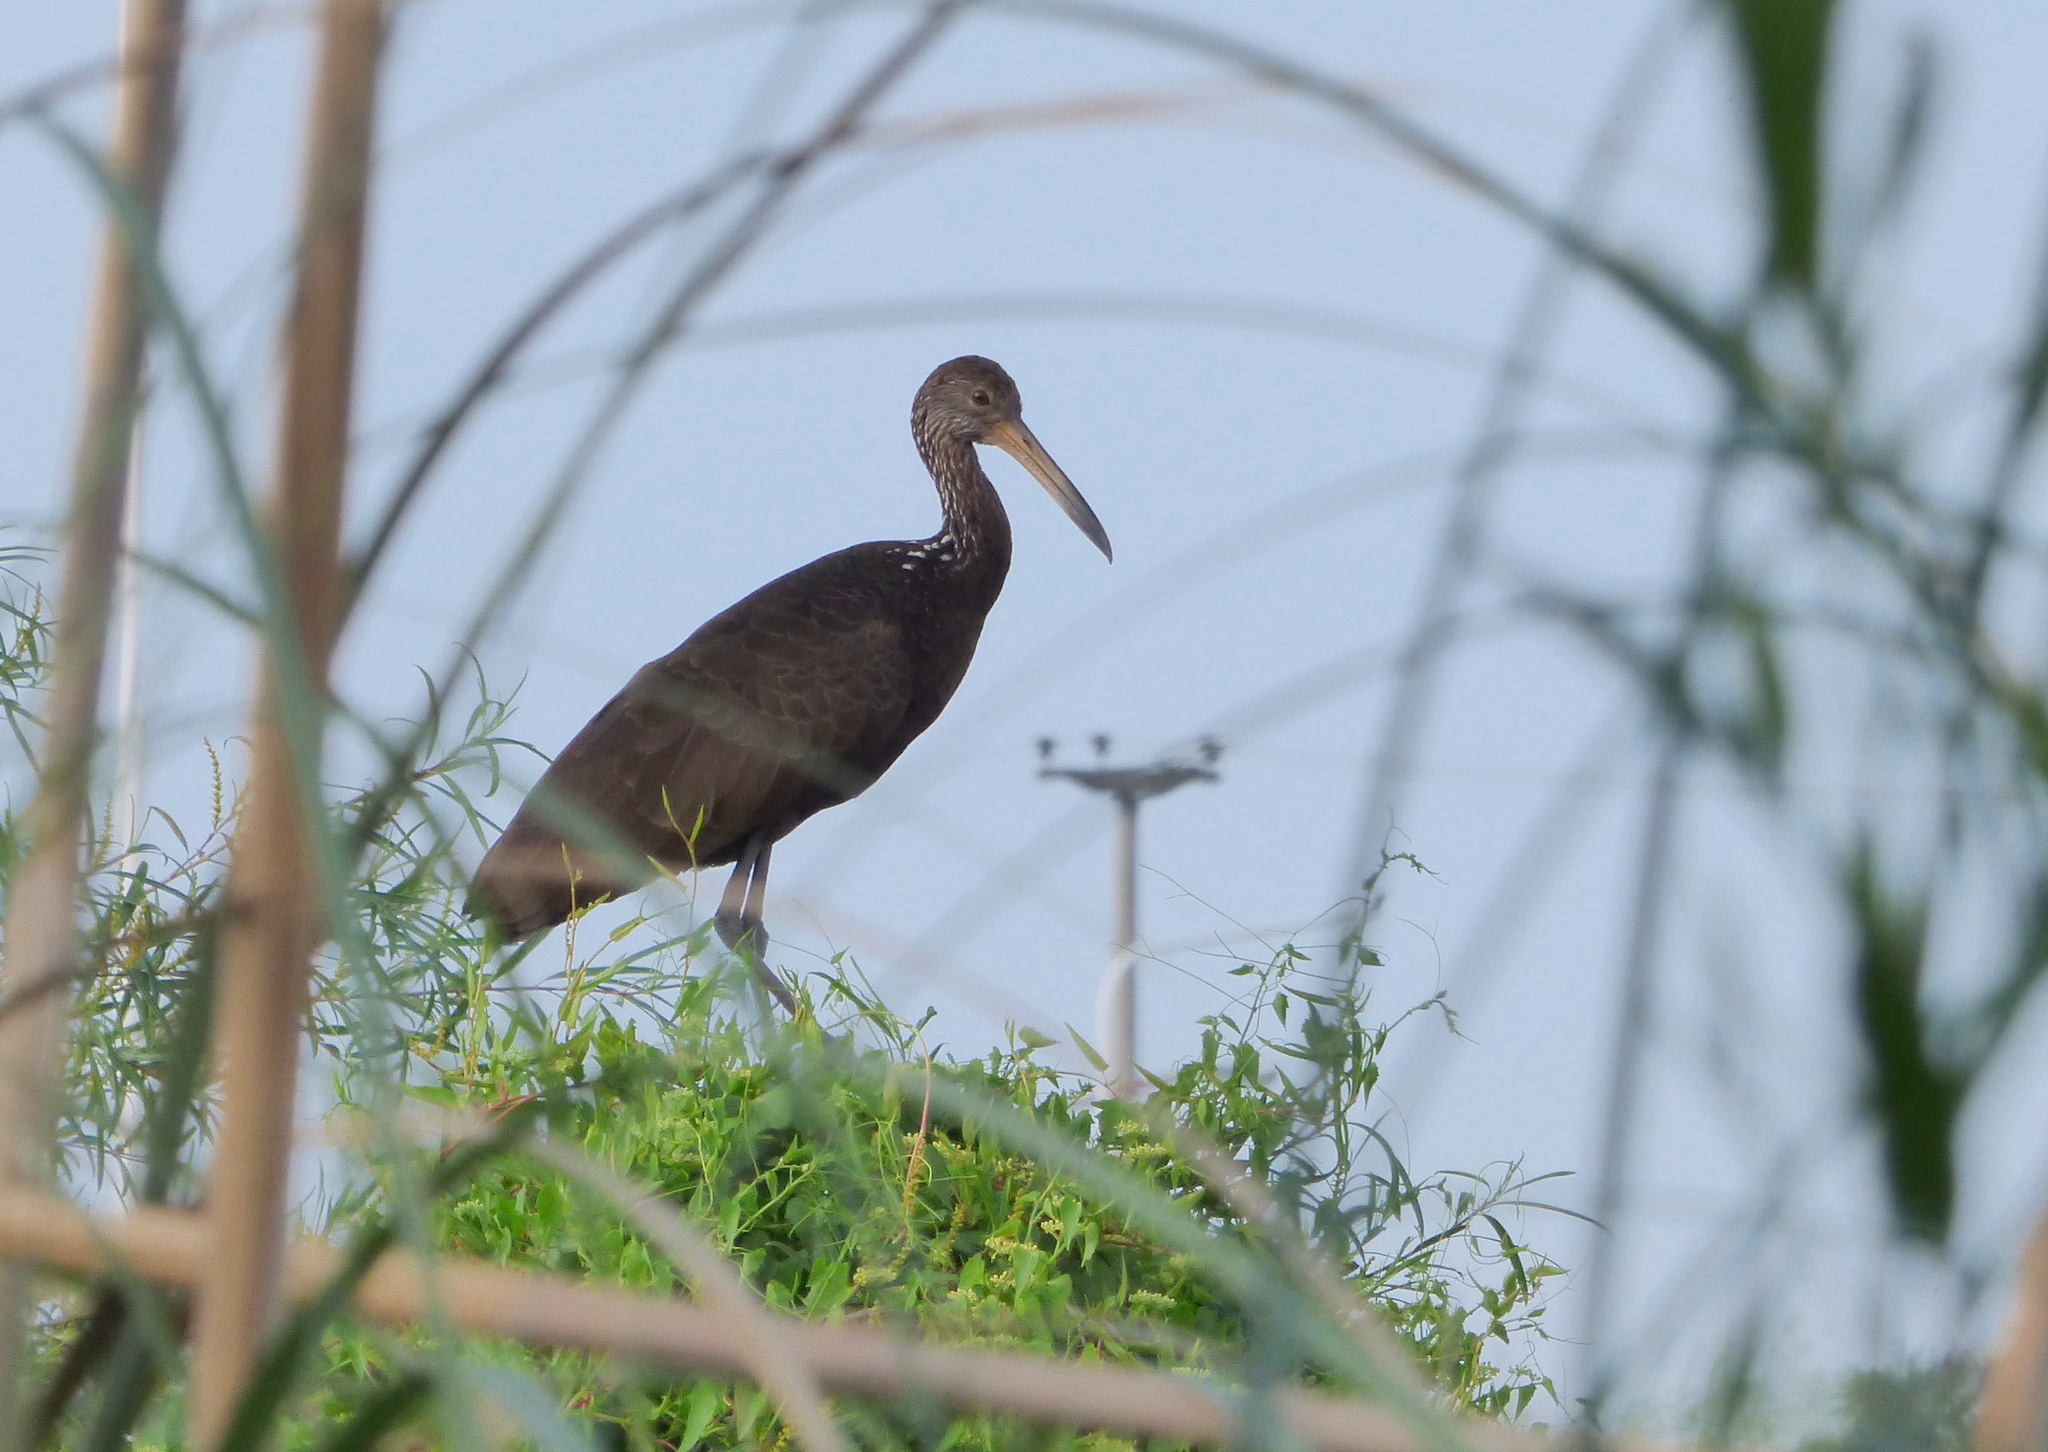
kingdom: Animalia
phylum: Chordata
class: Aves
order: Gruiformes
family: Aramidae
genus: Aramus
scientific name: Aramus guarauna
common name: Limpkin
